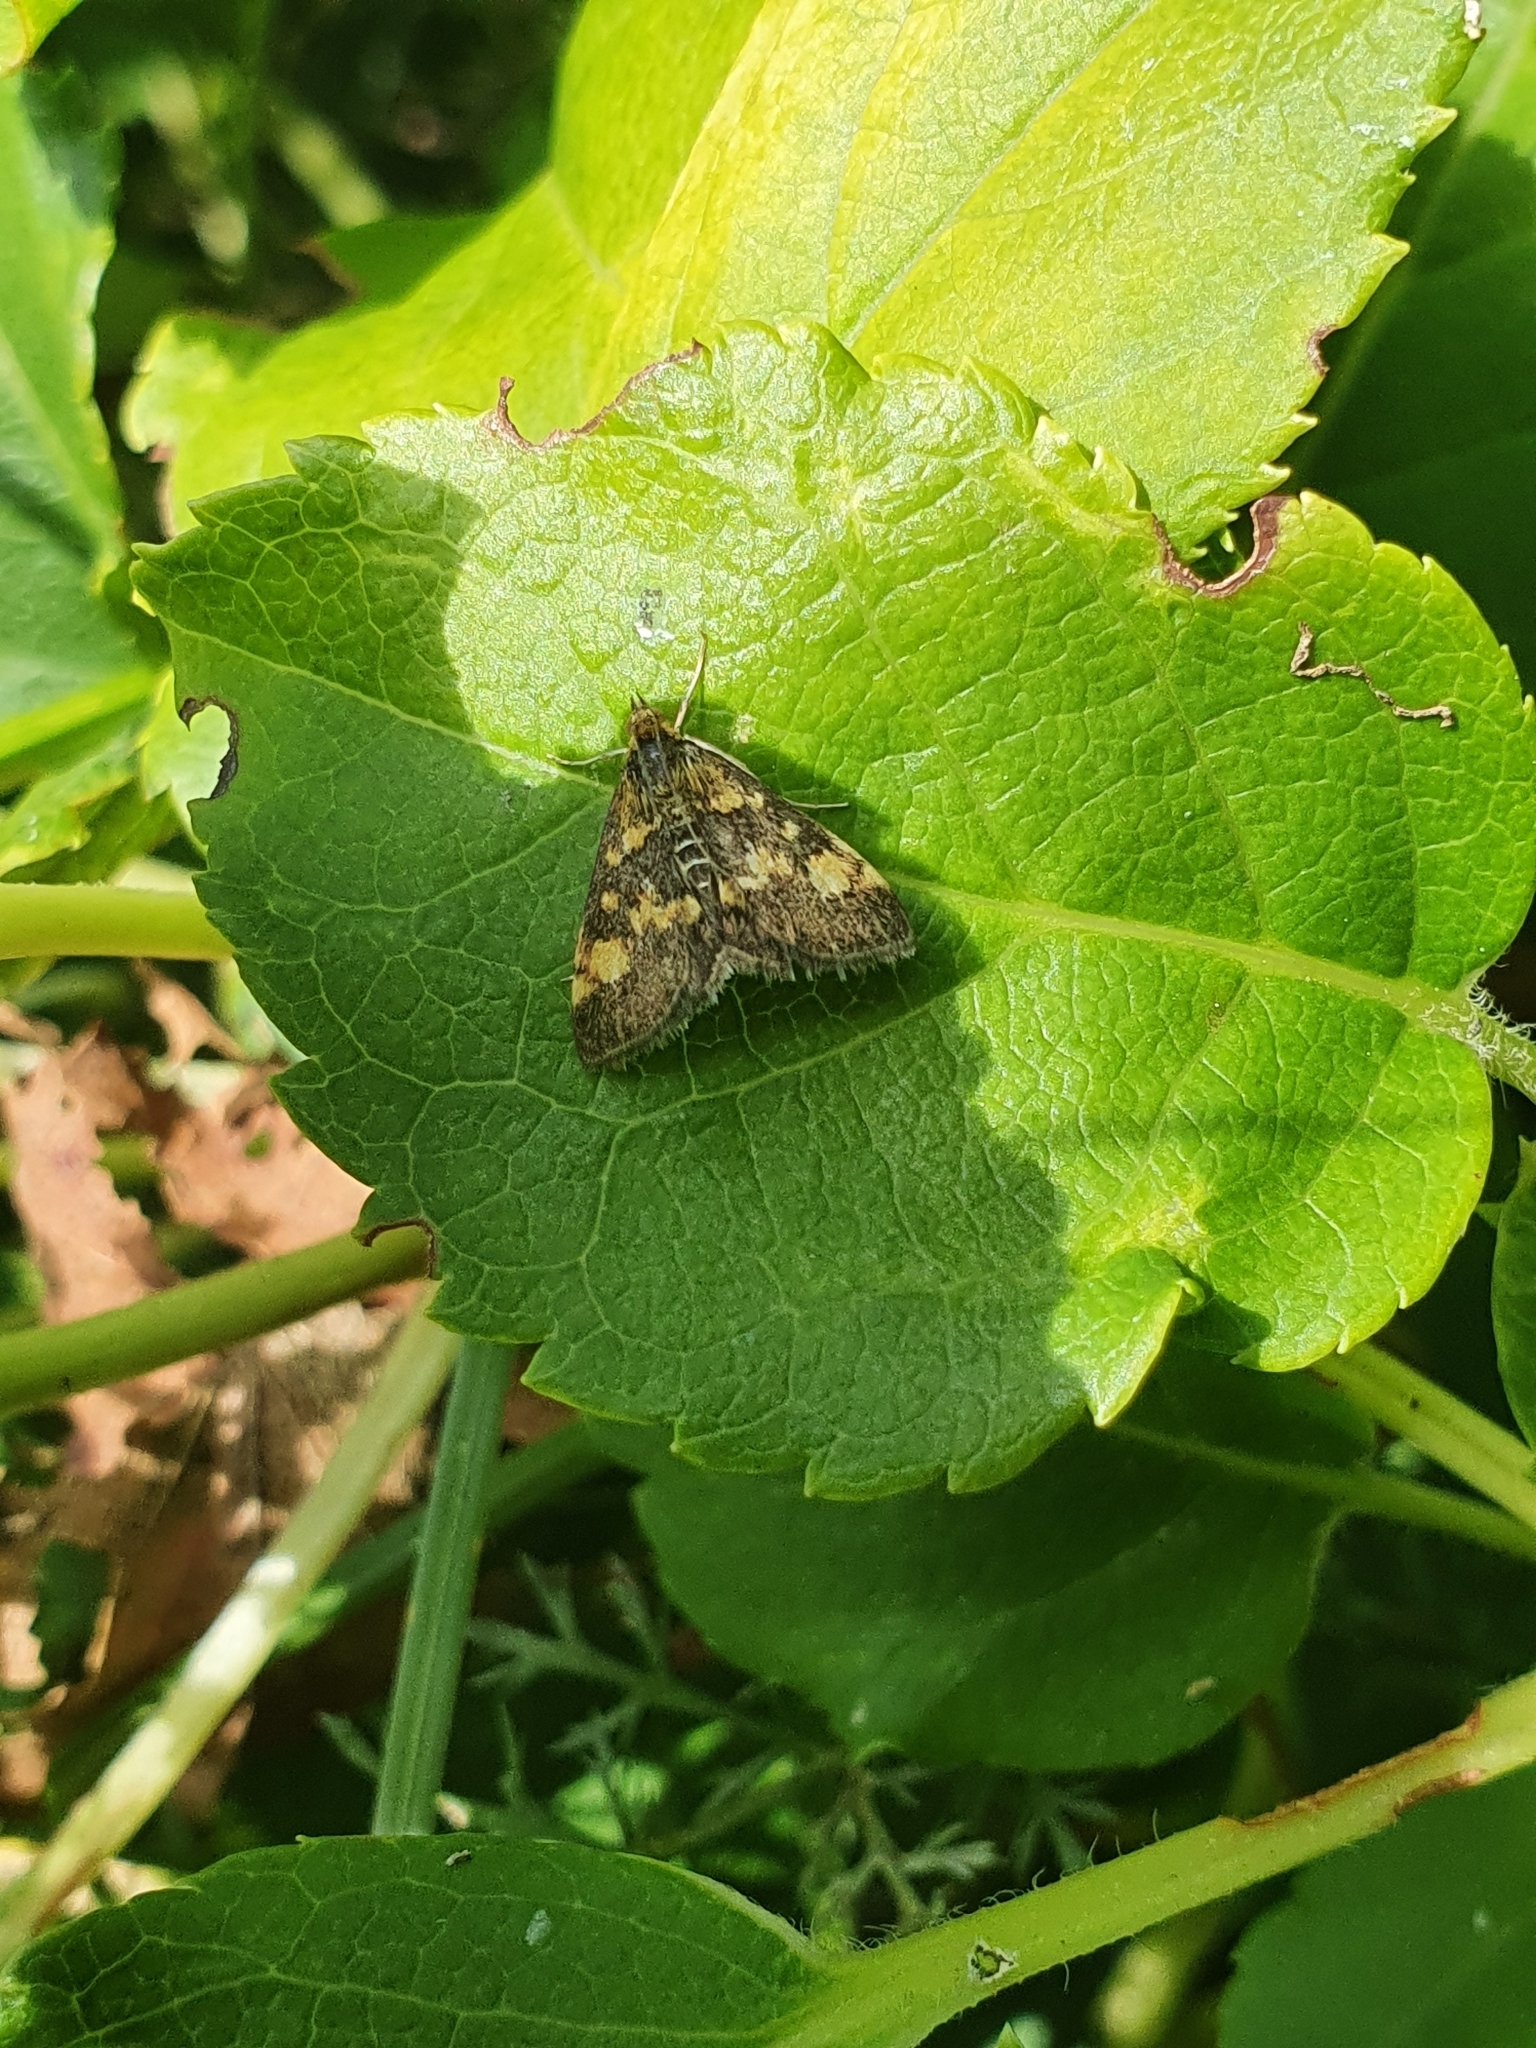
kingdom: Animalia
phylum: Arthropoda
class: Insecta
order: Lepidoptera
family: Crambidae
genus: Pyrausta
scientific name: Pyrausta aurata
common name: Small purple & gold
